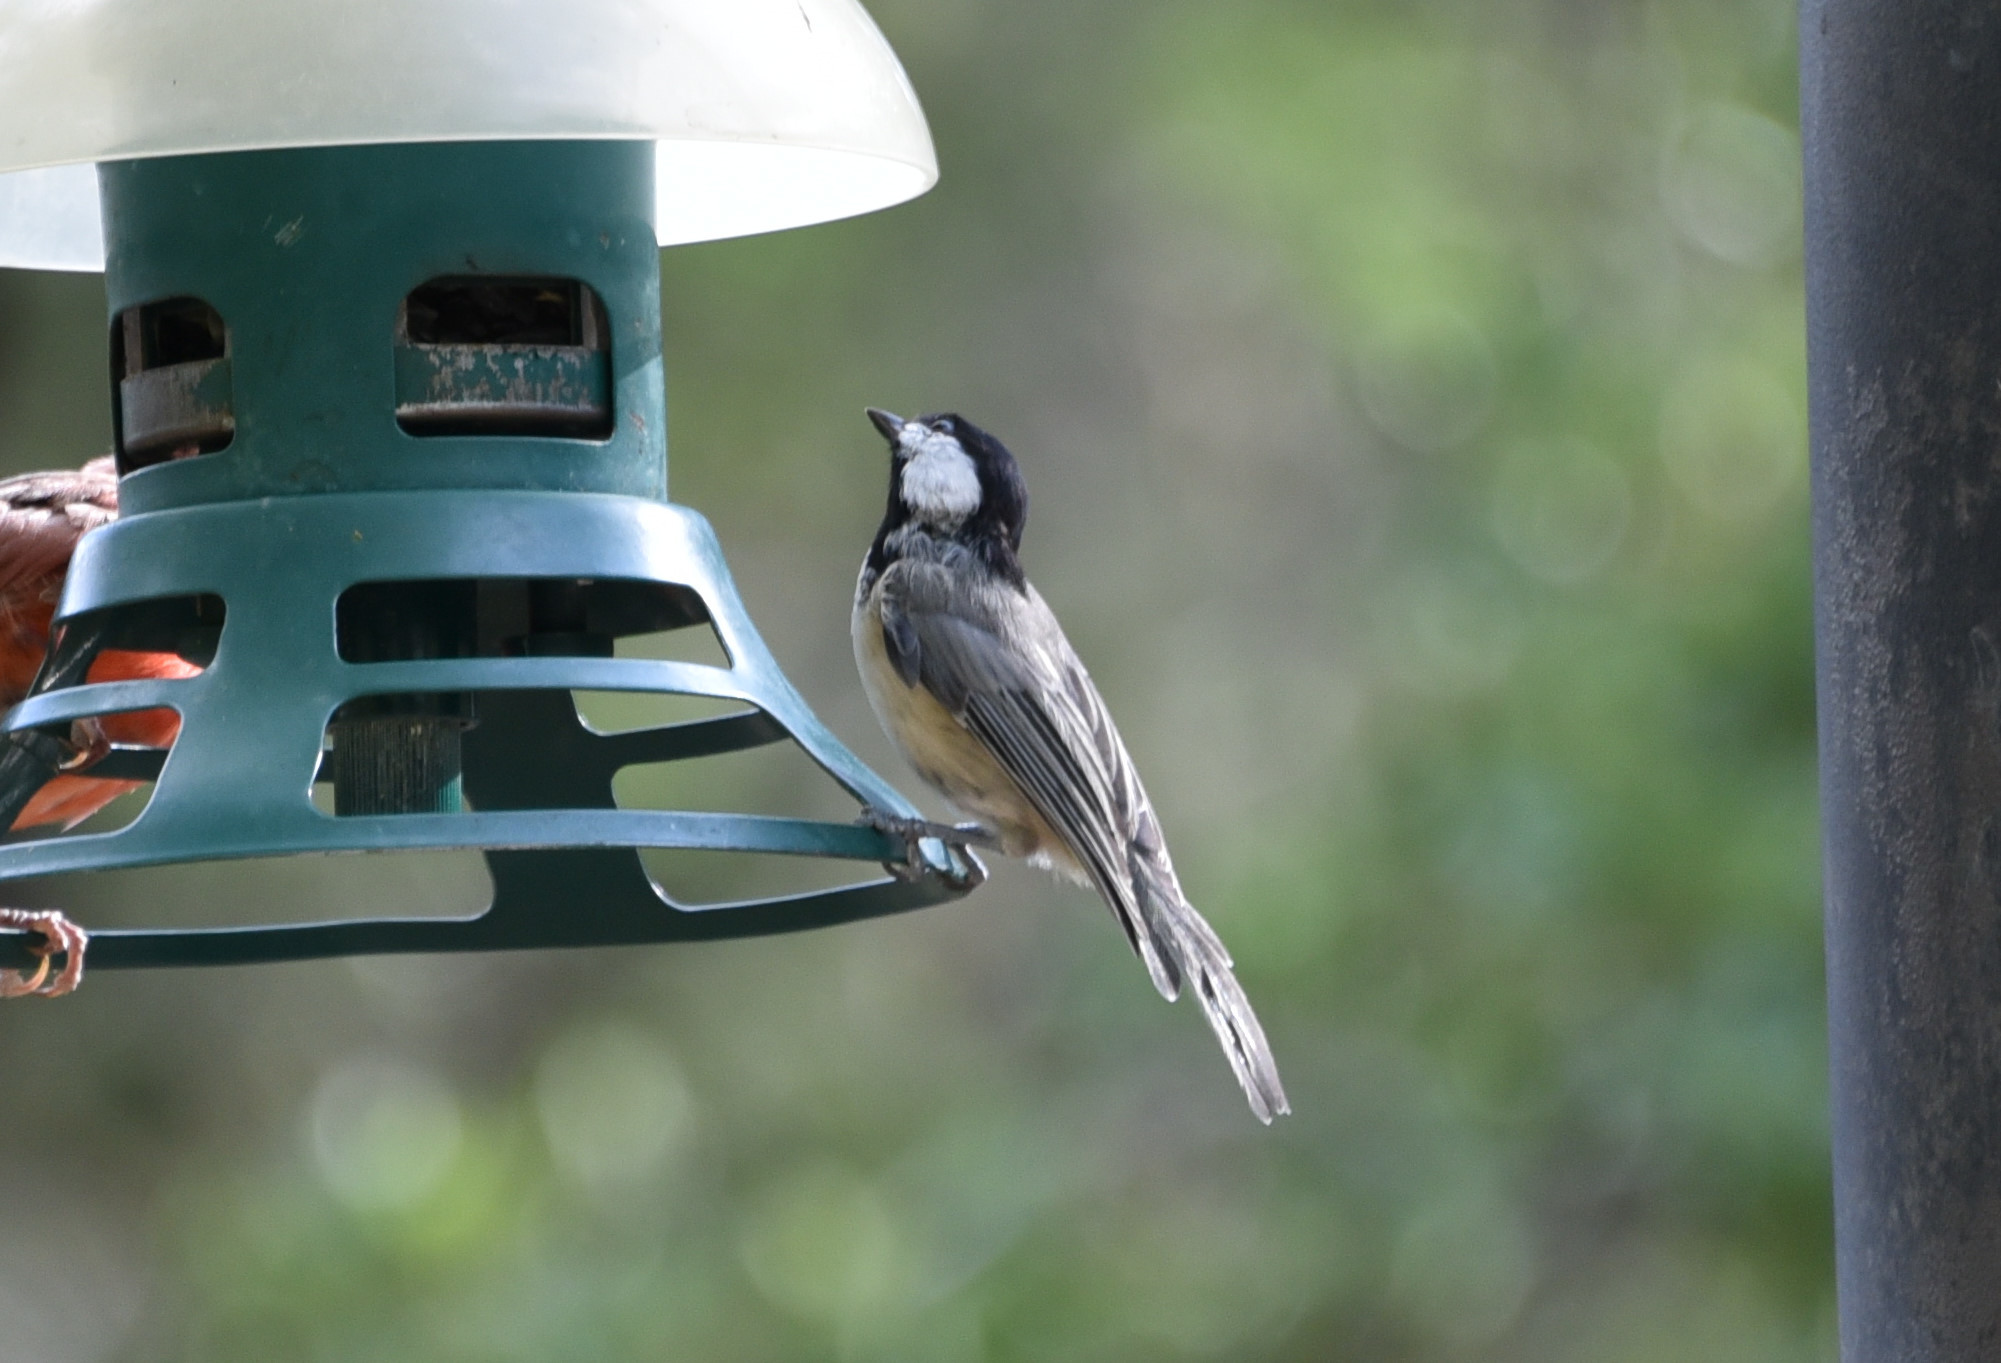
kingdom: Animalia
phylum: Chordata
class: Aves
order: Passeriformes
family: Paridae
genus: Poecile
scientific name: Poecile carolinensis
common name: Carolina chickadee
